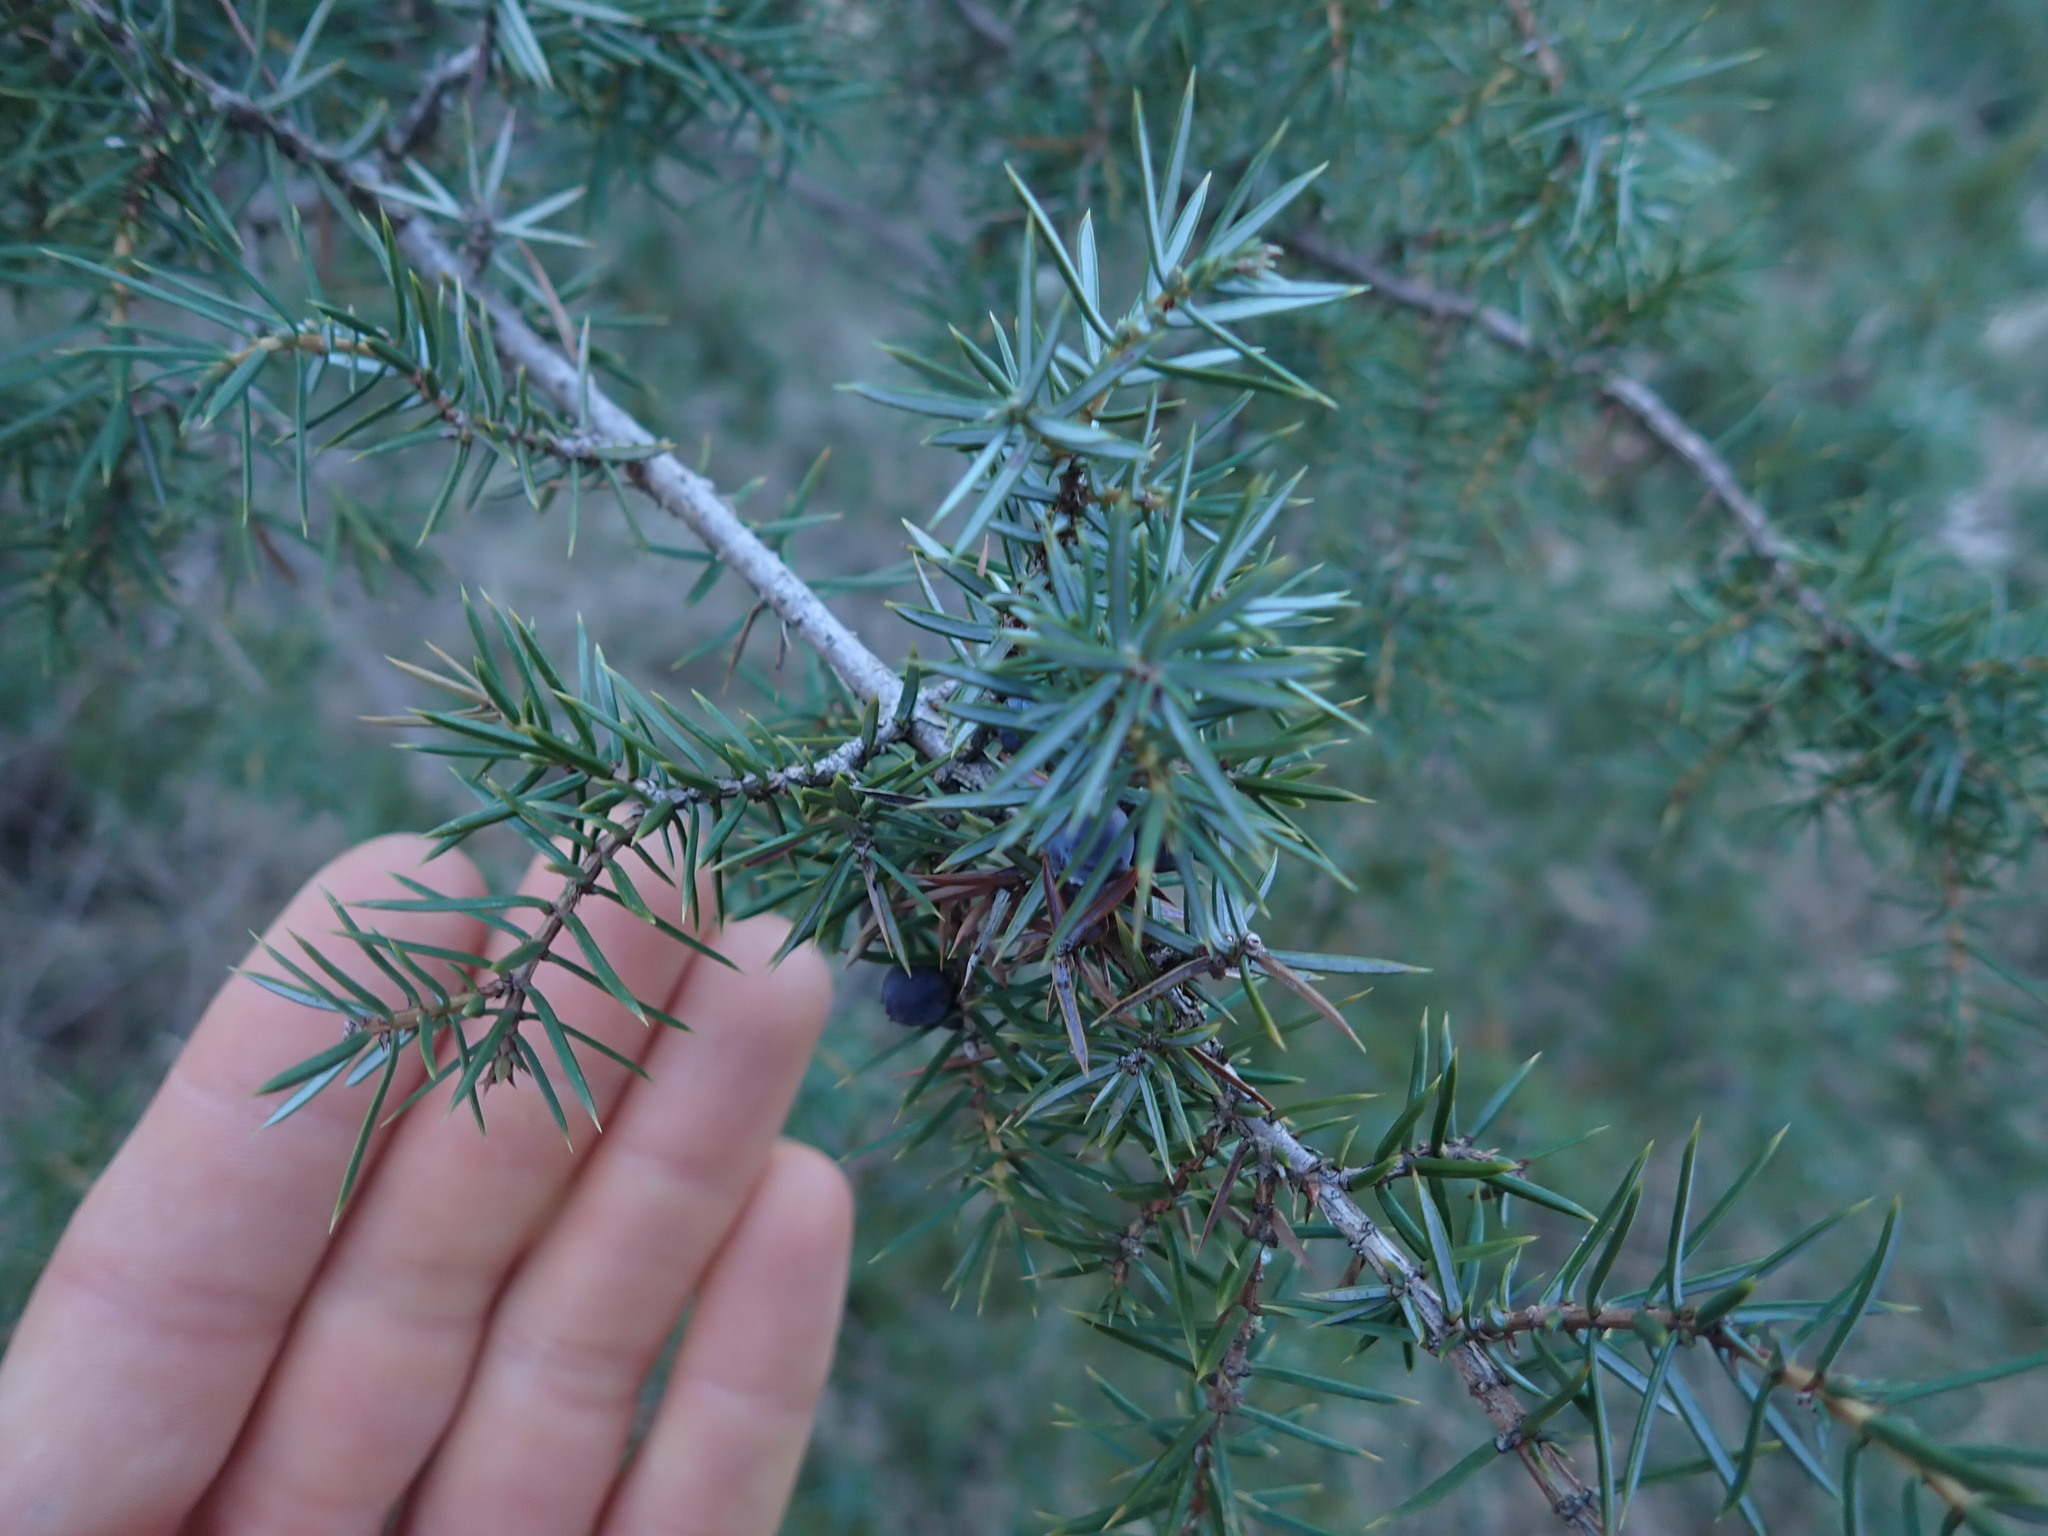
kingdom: Plantae
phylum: Tracheophyta
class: Pinopsida
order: Pinales
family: Cupressaceae
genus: Juniperus
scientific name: Juniperus communis
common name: Common juniper
